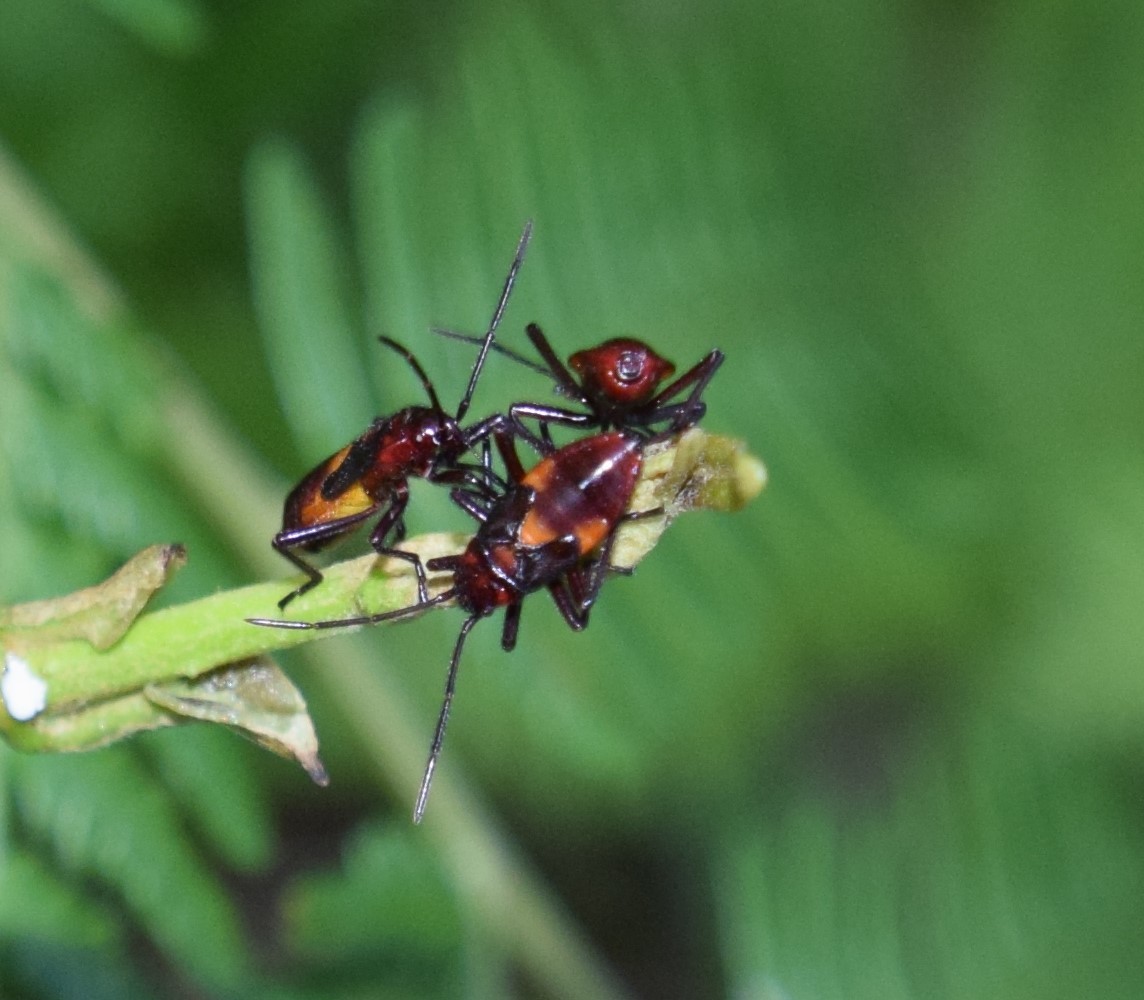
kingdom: Animalia
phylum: Arthropoda
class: Insecta
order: Hemiptera
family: Lygaeidae
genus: Oncopeltus
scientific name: Oncopeltus sordidus
